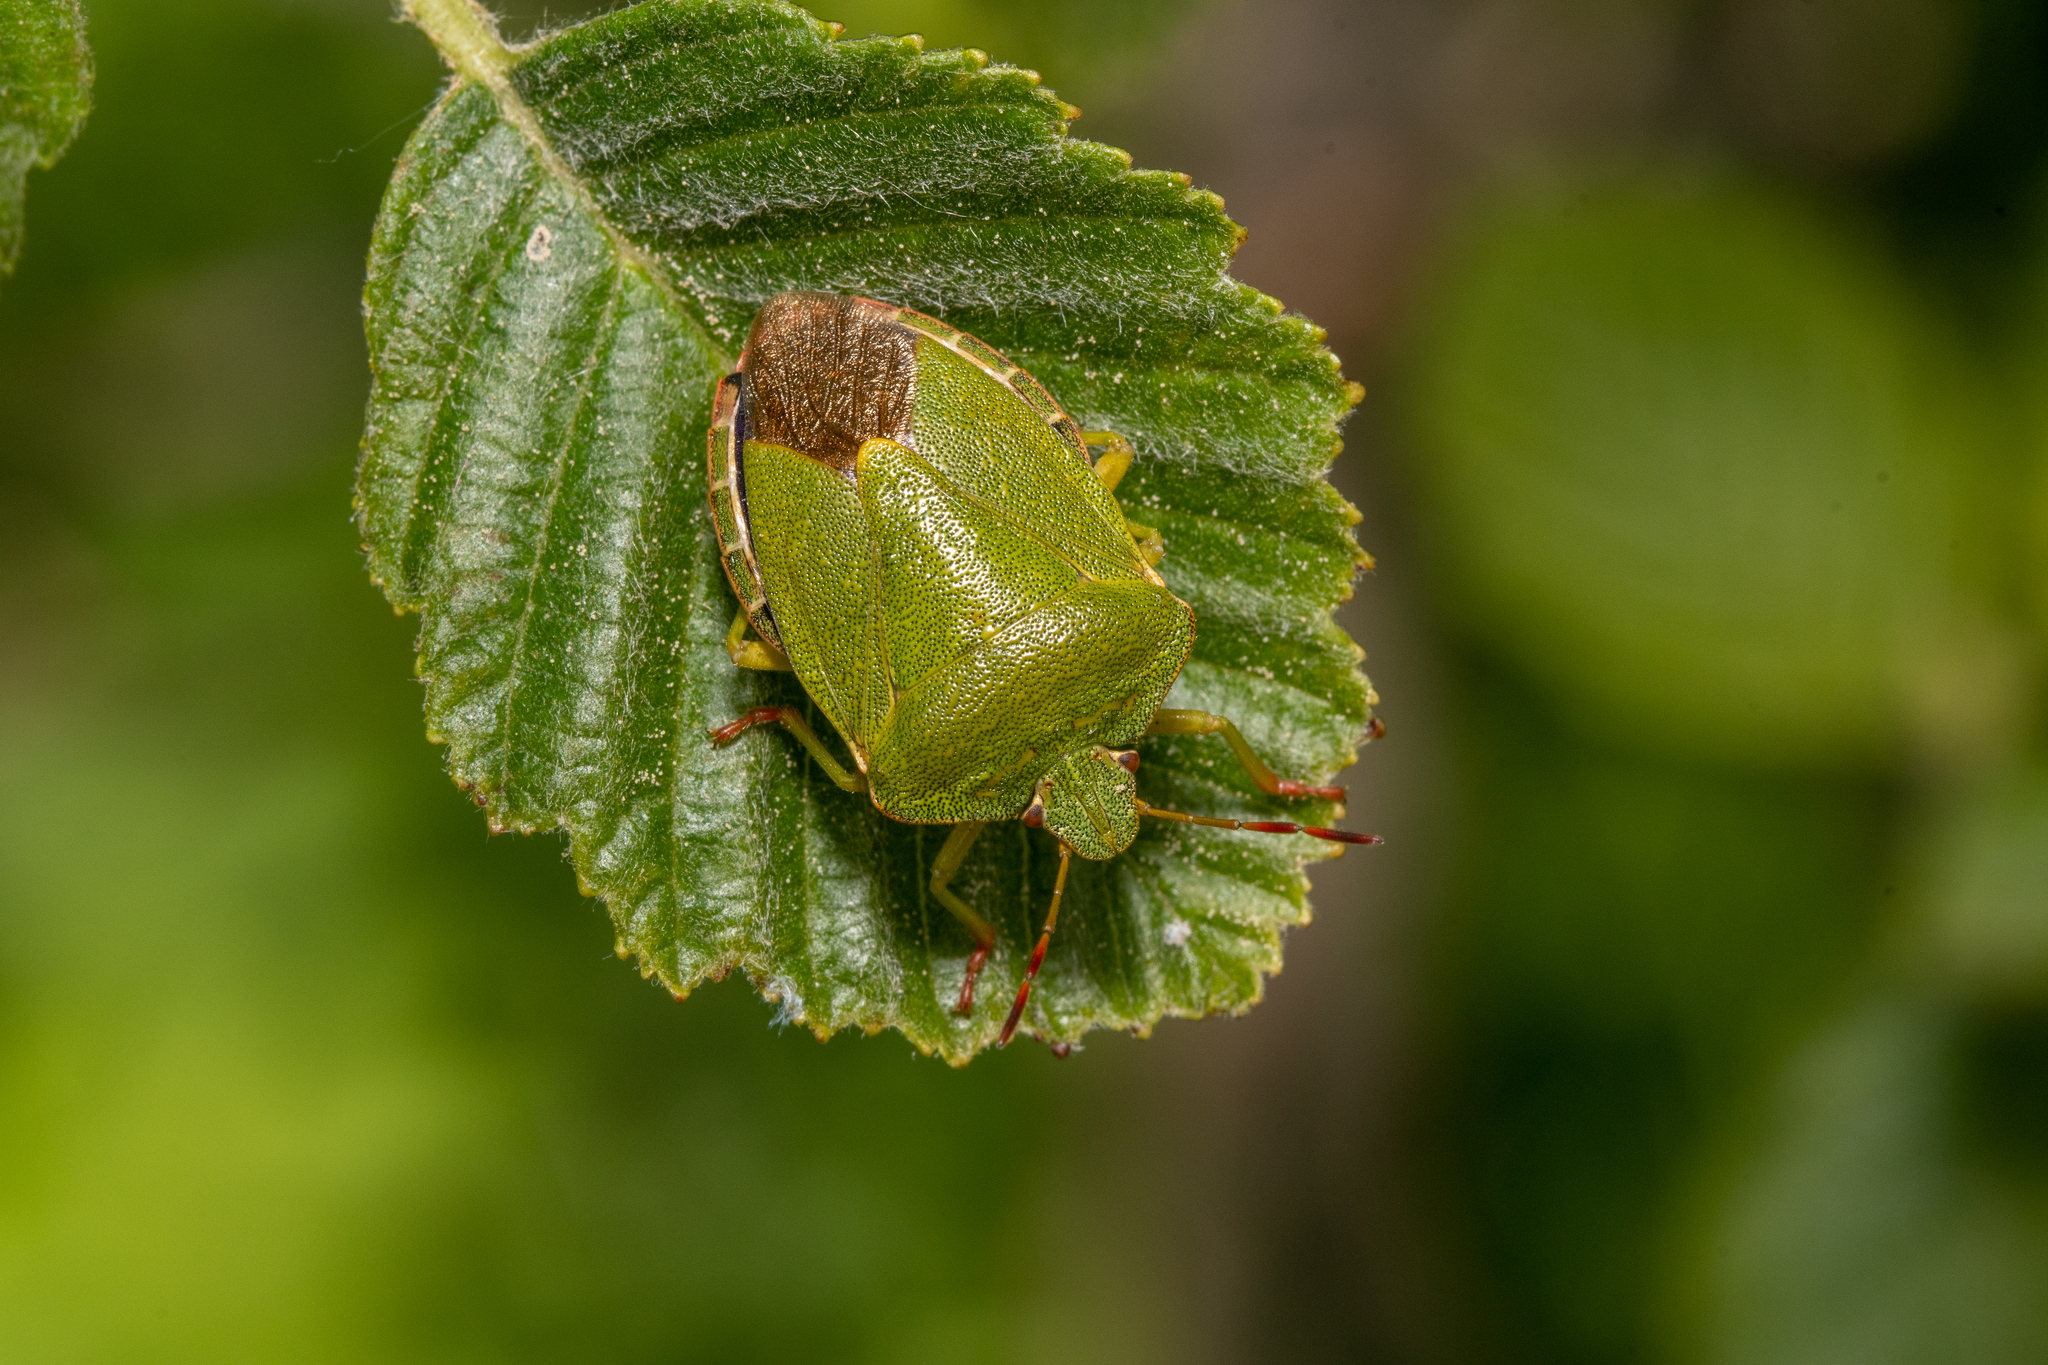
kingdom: Animalia
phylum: Arthropoda
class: Insecta
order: Hemiptera
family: Pentatomidae
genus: Palomena
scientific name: Palomena prasina
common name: Green shieldbug
